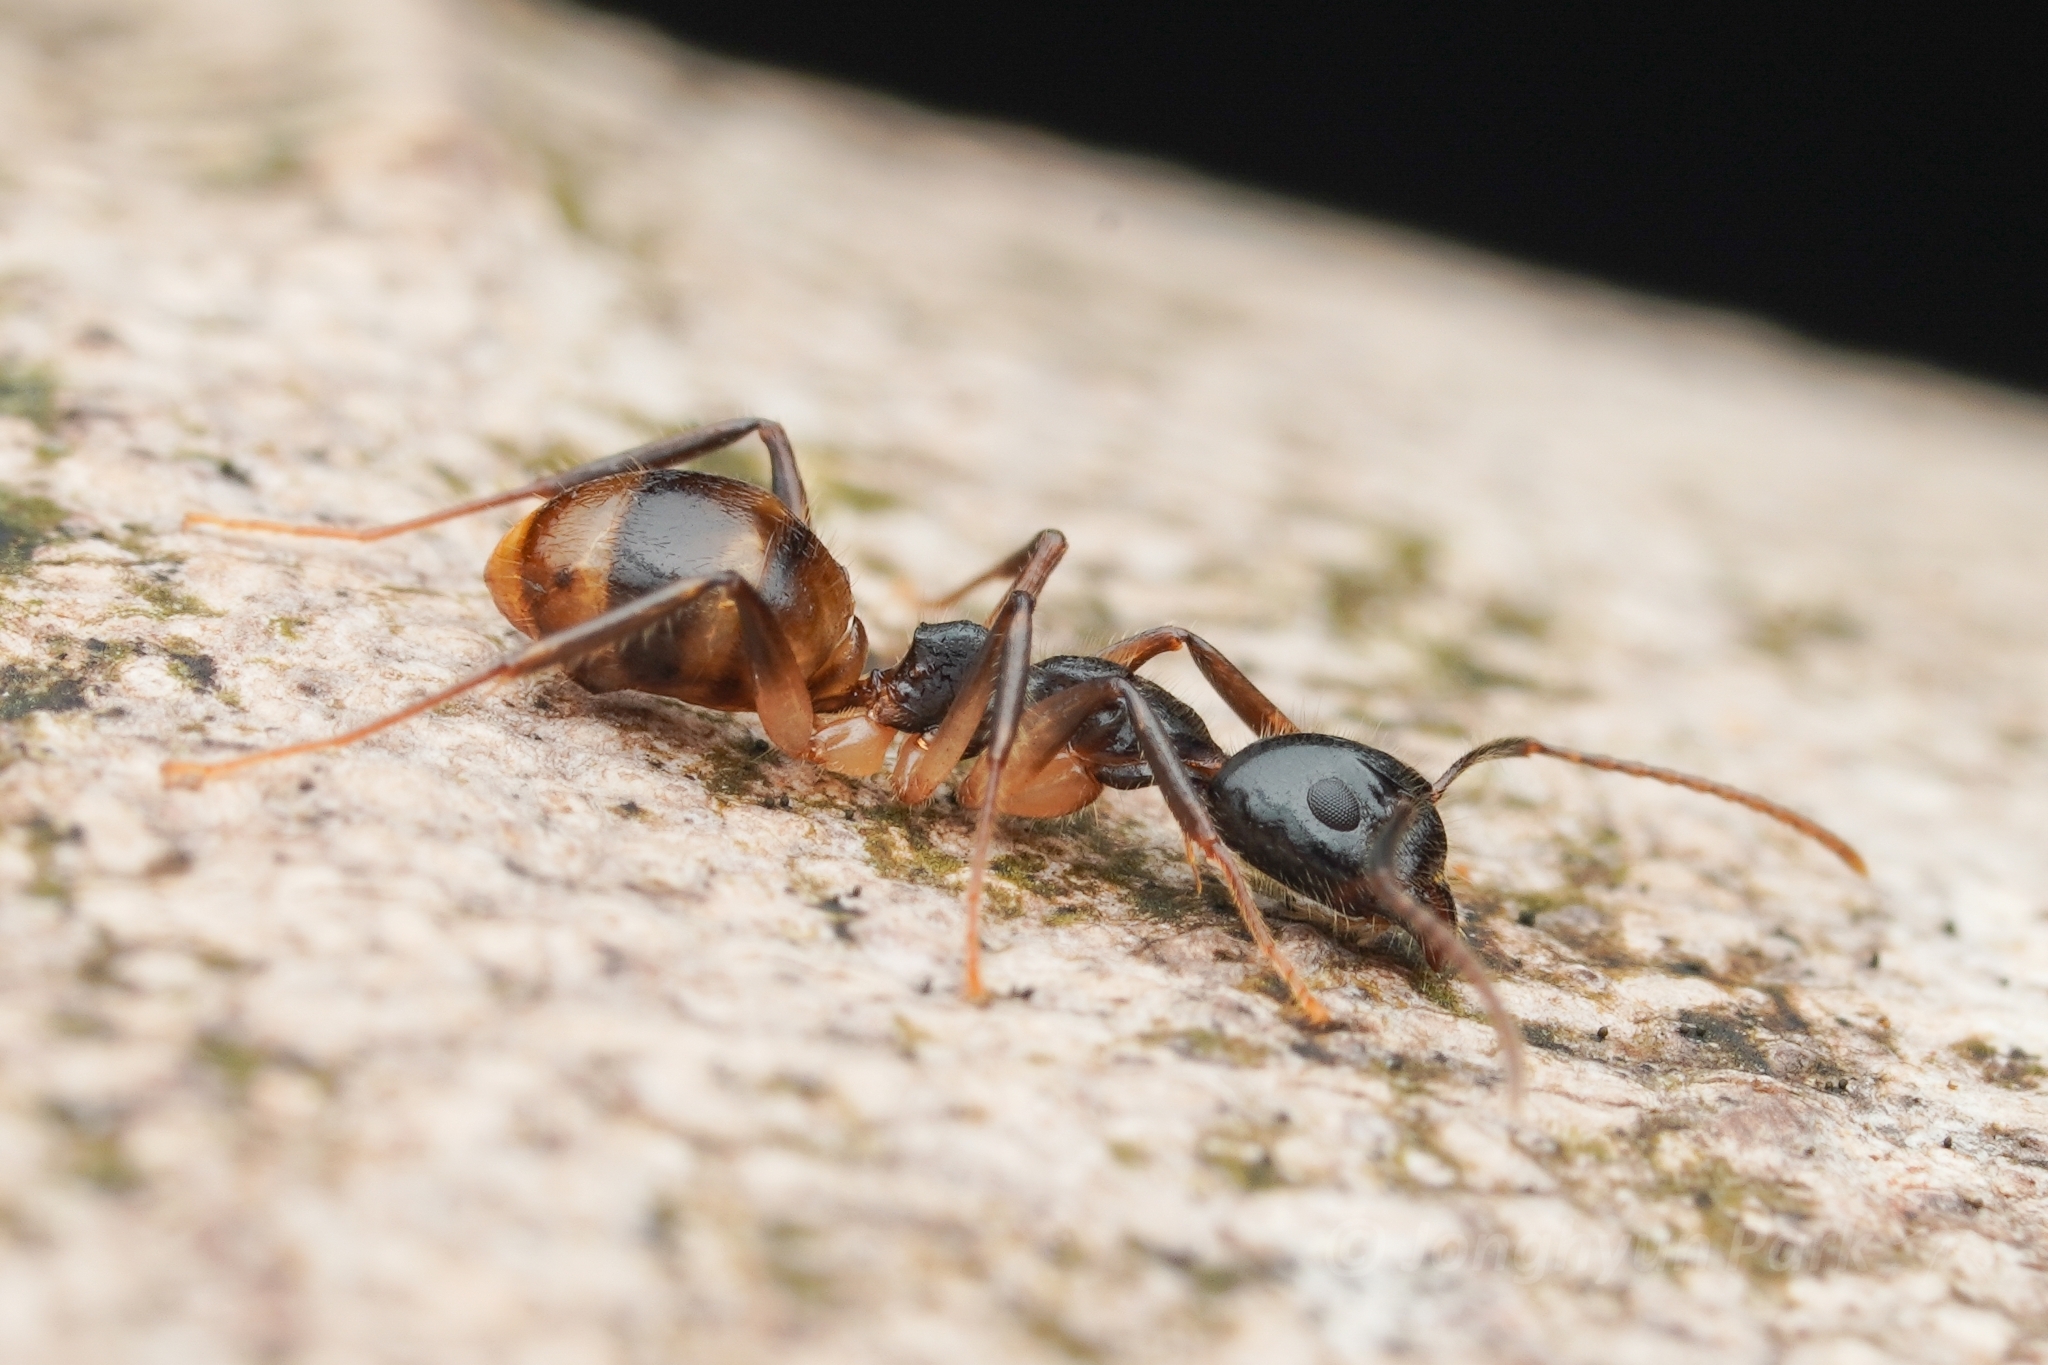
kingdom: Animalia
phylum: Arthropoda
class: Insecta
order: Hymenoptera
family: Formicidae
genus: Dolichoderus
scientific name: Dolichoderus diversus
